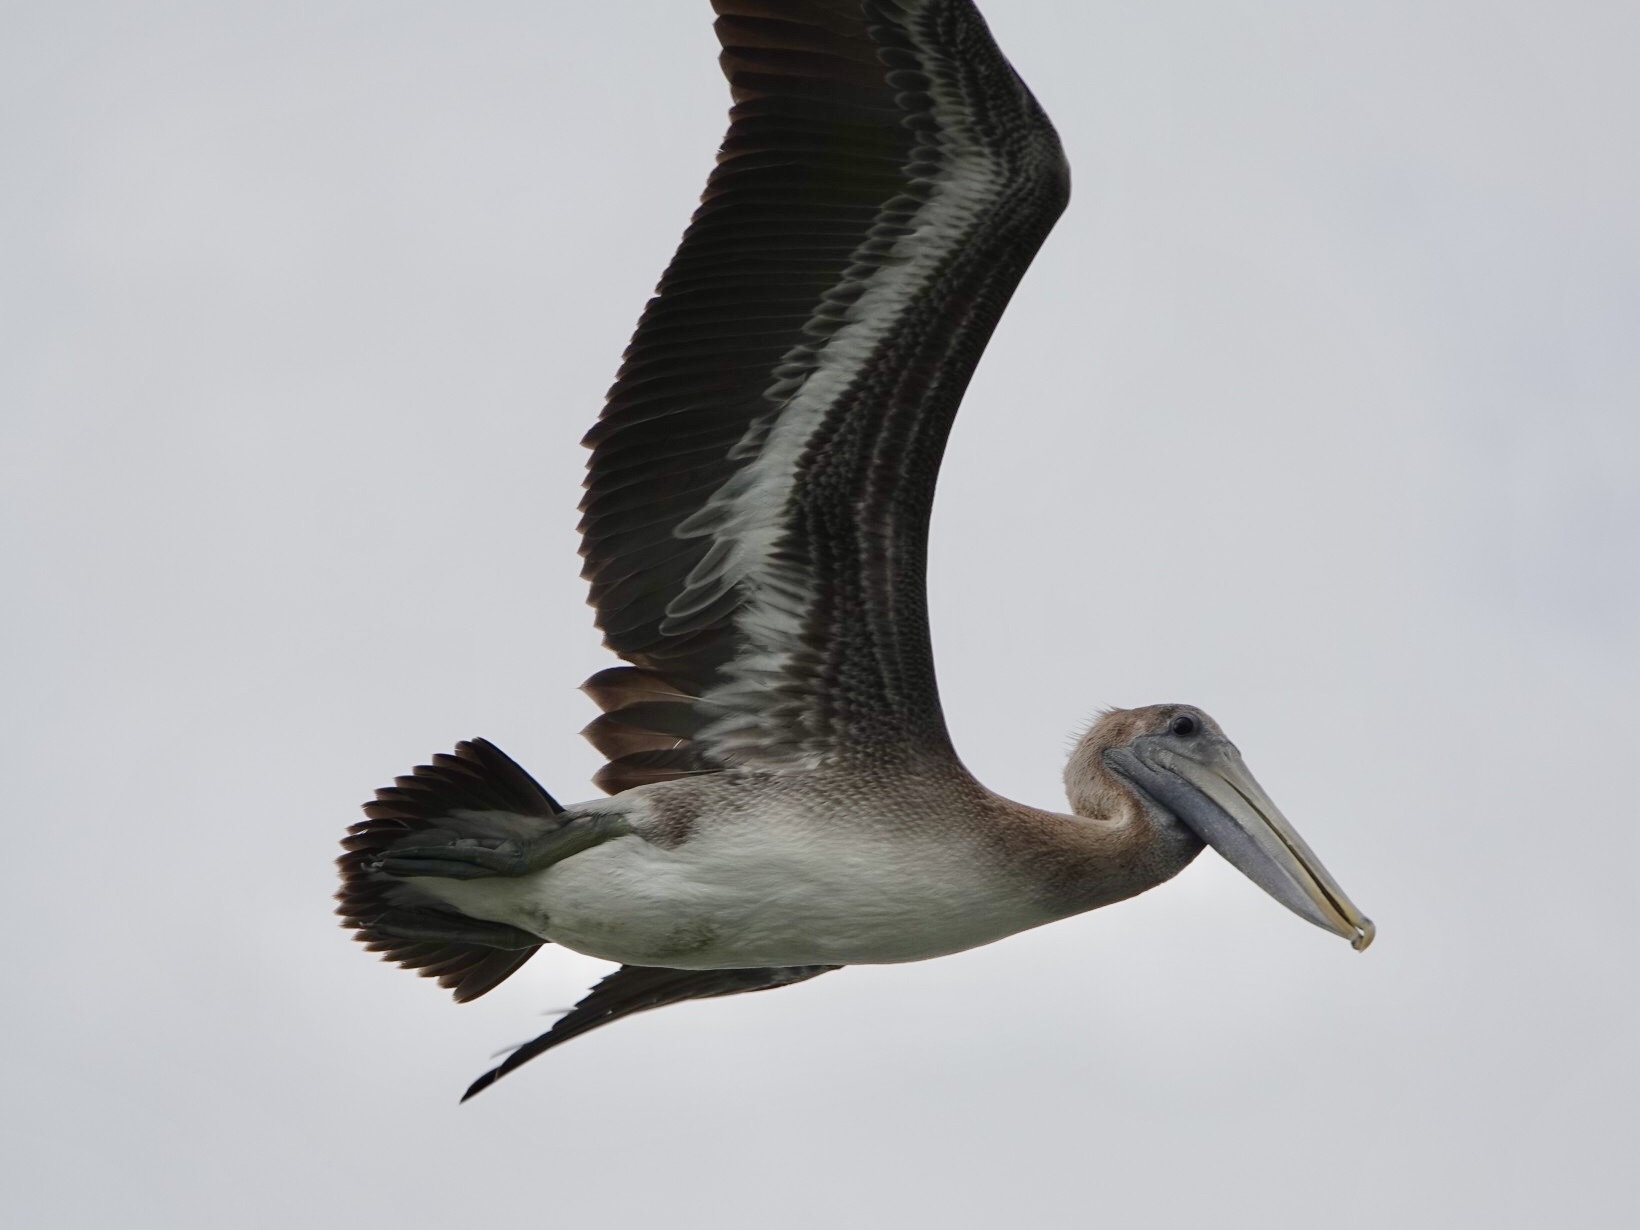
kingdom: Animalia
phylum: Chordata
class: Aves
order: Pelecaniformes
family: Pelecanidae
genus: Pelecanus
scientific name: Pelecanus occidentalis
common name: Brown pelican
